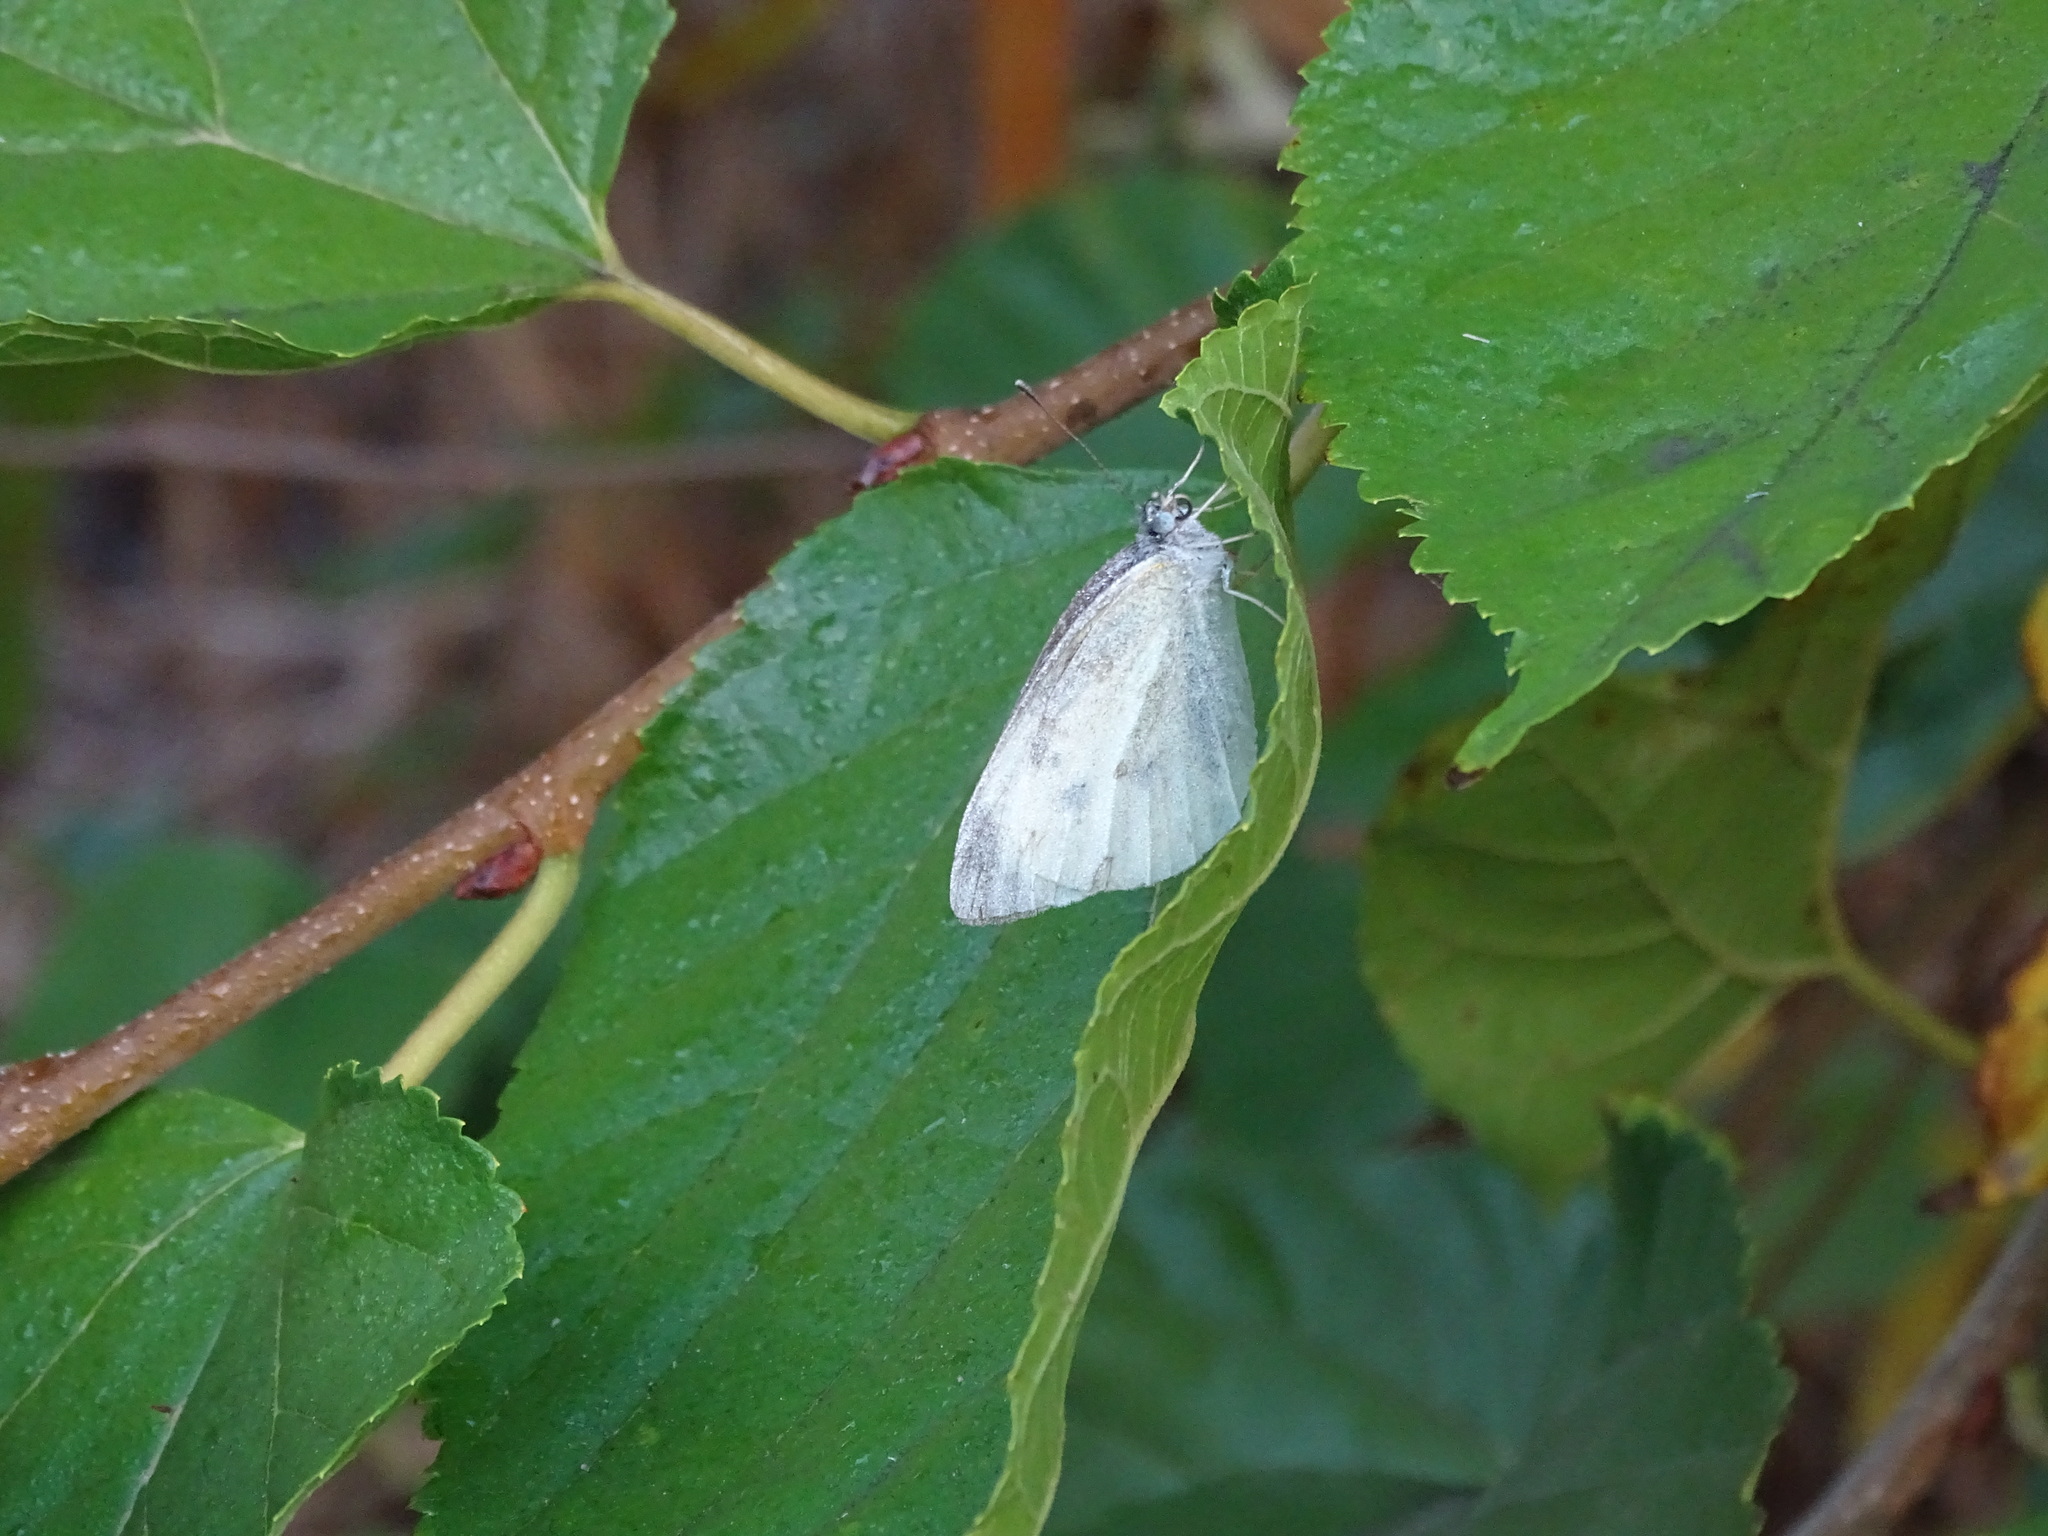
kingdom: Animalia
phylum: Arthropoda
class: Insecta
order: Lepidoptera
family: Pieridae
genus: Pieris
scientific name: Pieris canidia
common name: Indian cabbage white
